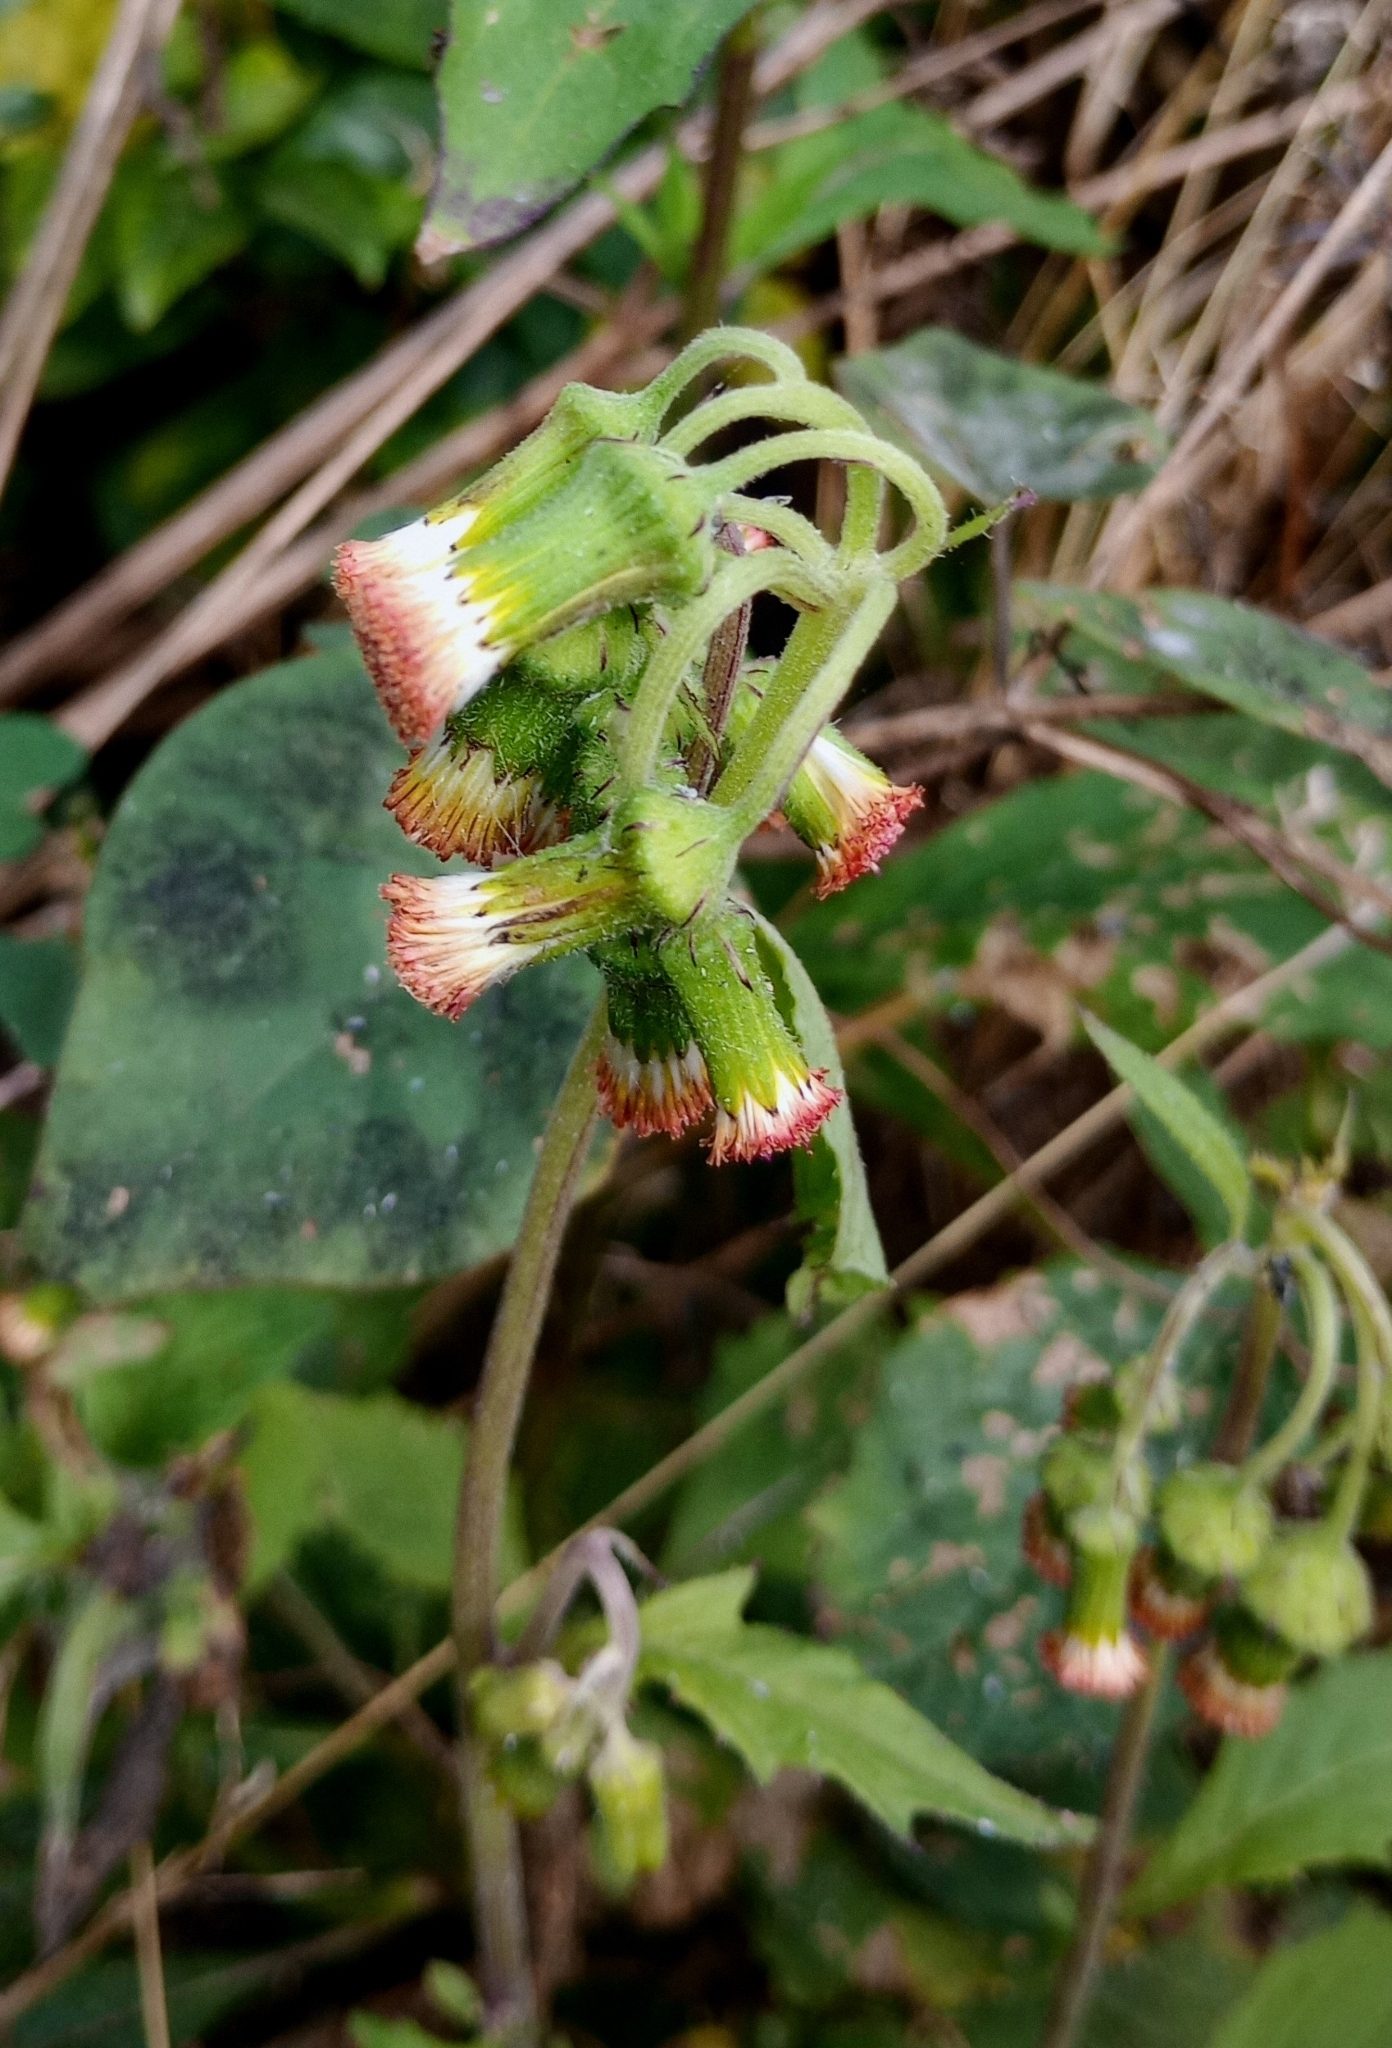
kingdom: Plantae
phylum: Tracheophyta
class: Magnoliopsida
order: Asterales
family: Asteraceae
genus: Crassocephalum
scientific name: Crassocephalum crepidioides
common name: Redflower ragleaf
